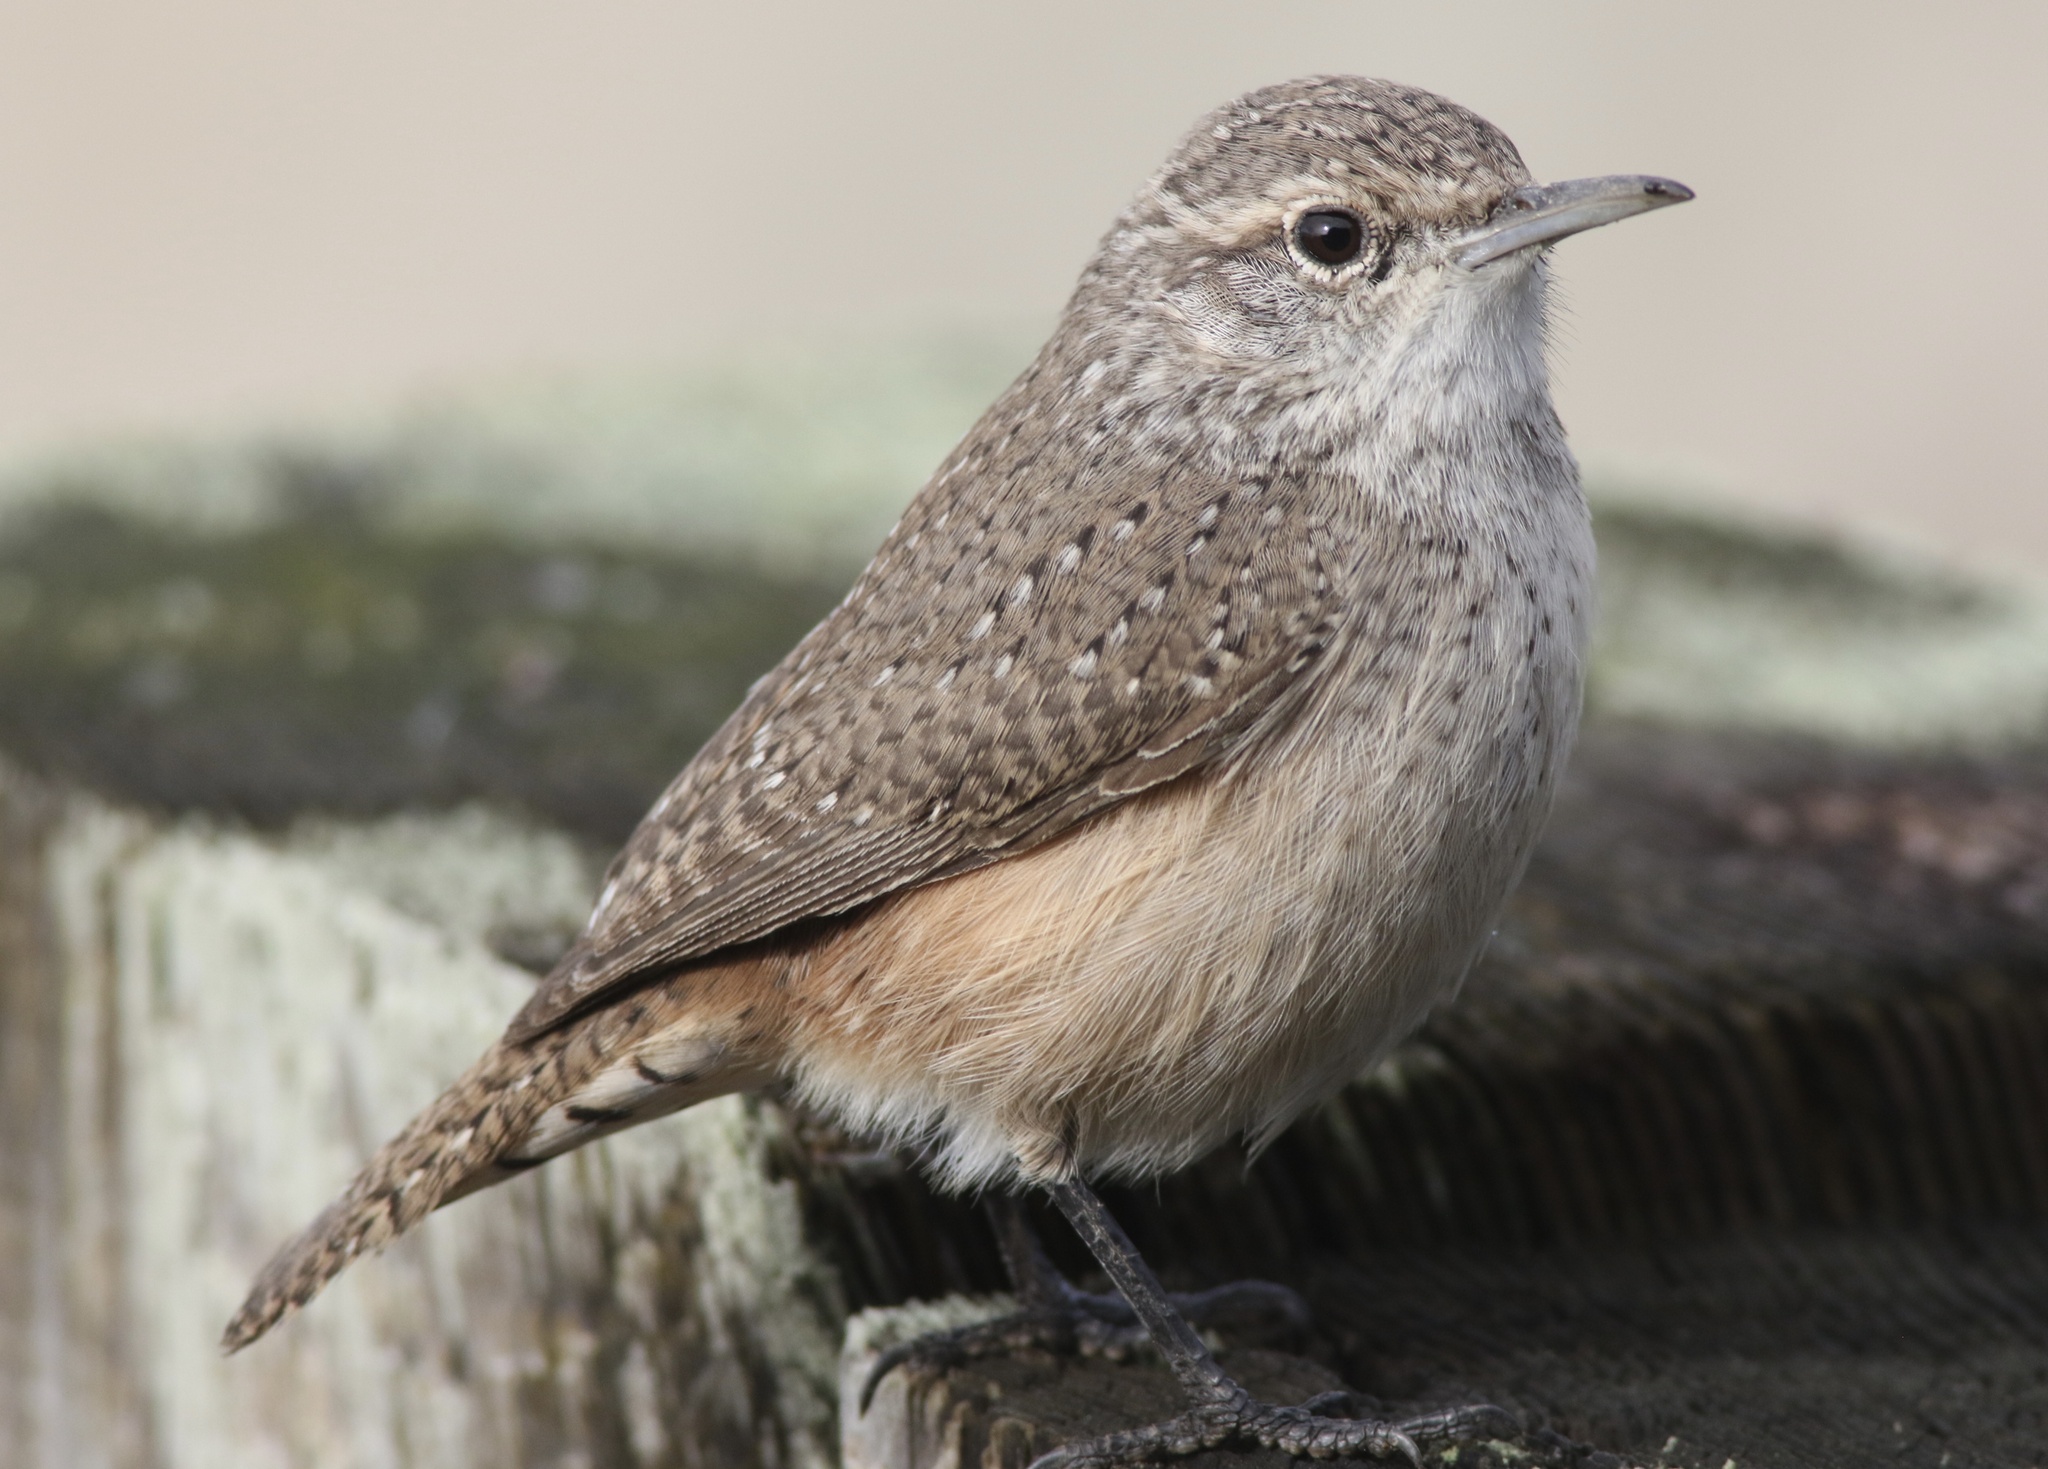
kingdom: Animalia
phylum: Chordata
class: Aves
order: Passeriformes
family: Troglodytidae
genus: Salpinctes
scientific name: Salpinctes obsoletus
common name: Rock wren
